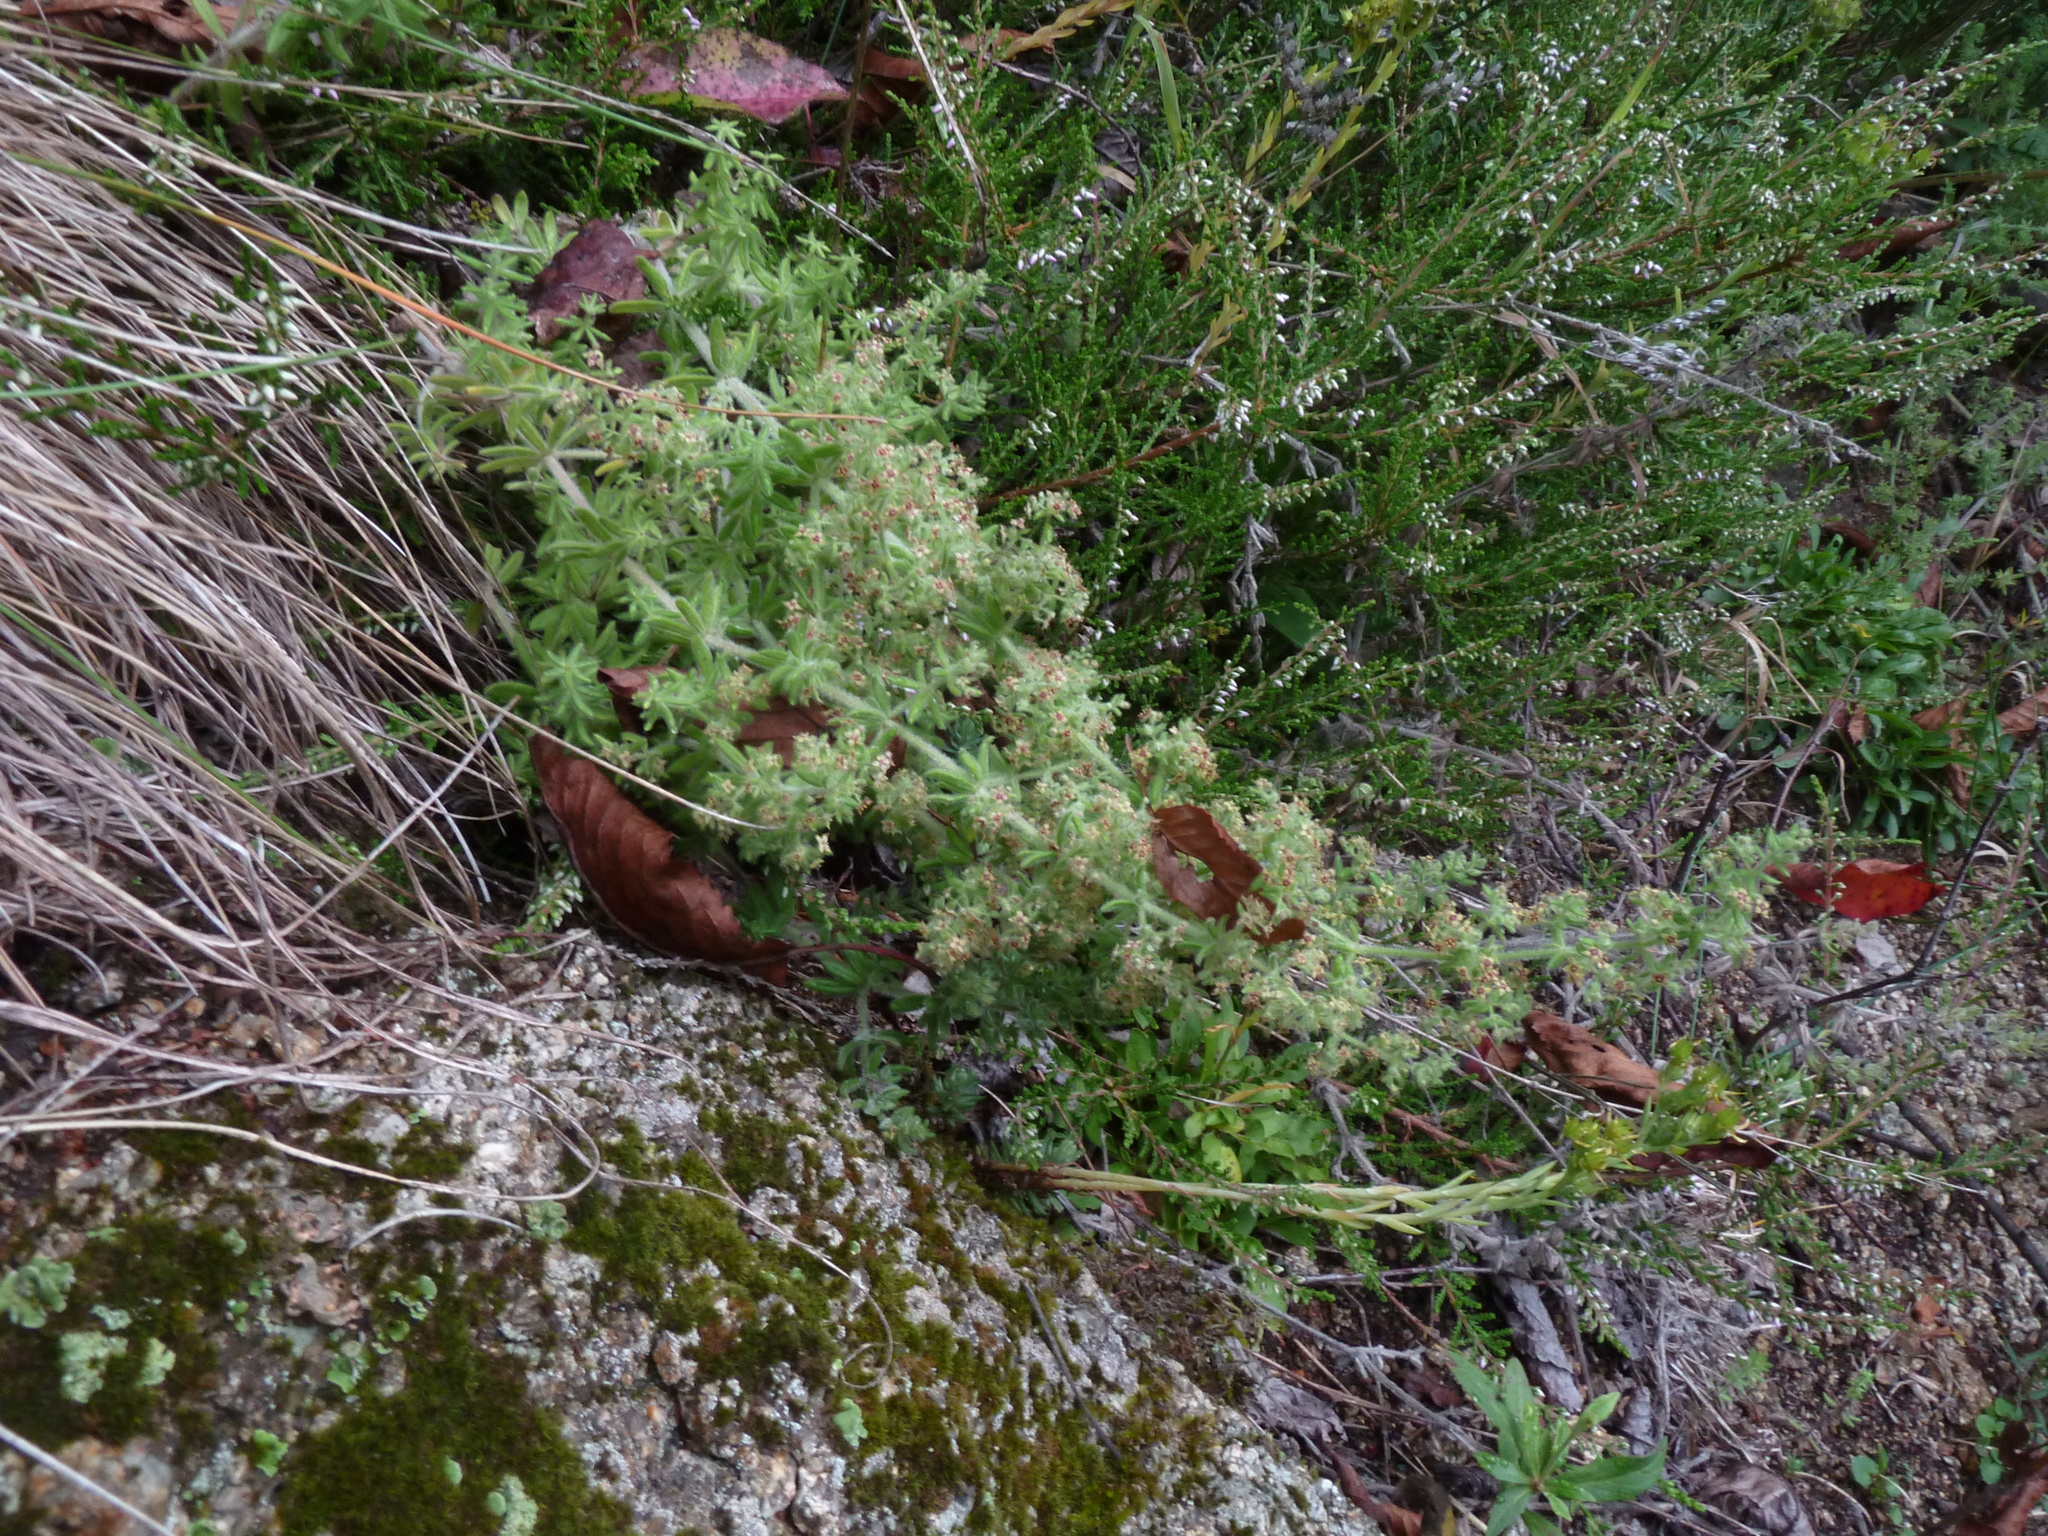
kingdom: Plantae
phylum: Tracheophyta
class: Magnoliopsida
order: Gentianales
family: Rubiaceae
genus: Galium
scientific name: Galium maritimum
